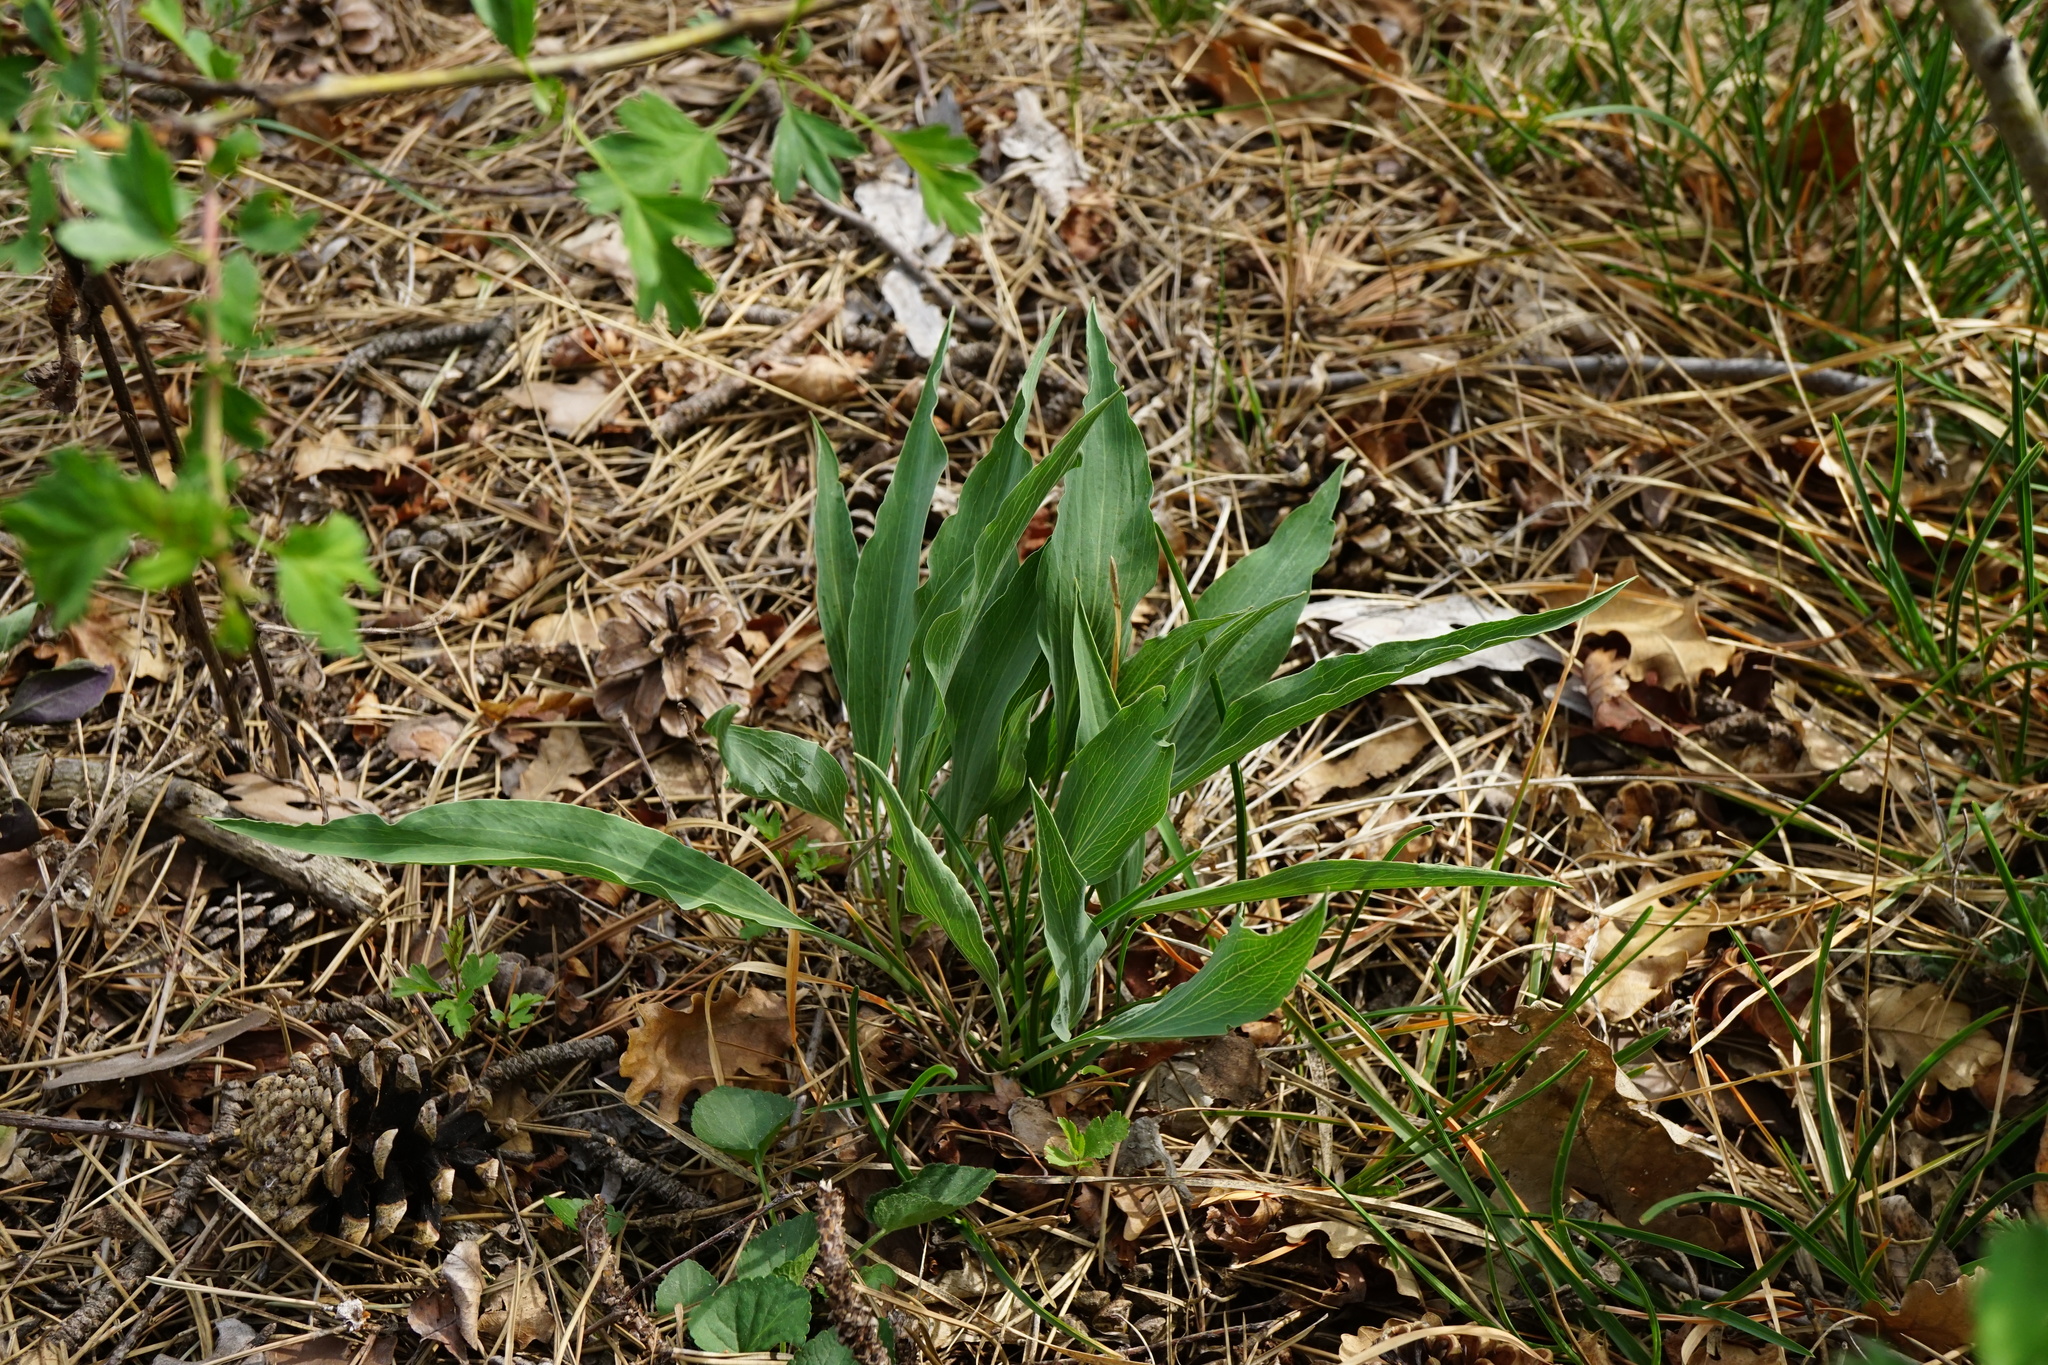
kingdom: Plantae
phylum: Tracheophyta
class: Magnoliopsida
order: Asterales
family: Asteraceae
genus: Takhtajaniantha
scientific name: Takhtajaniantha austriaca
